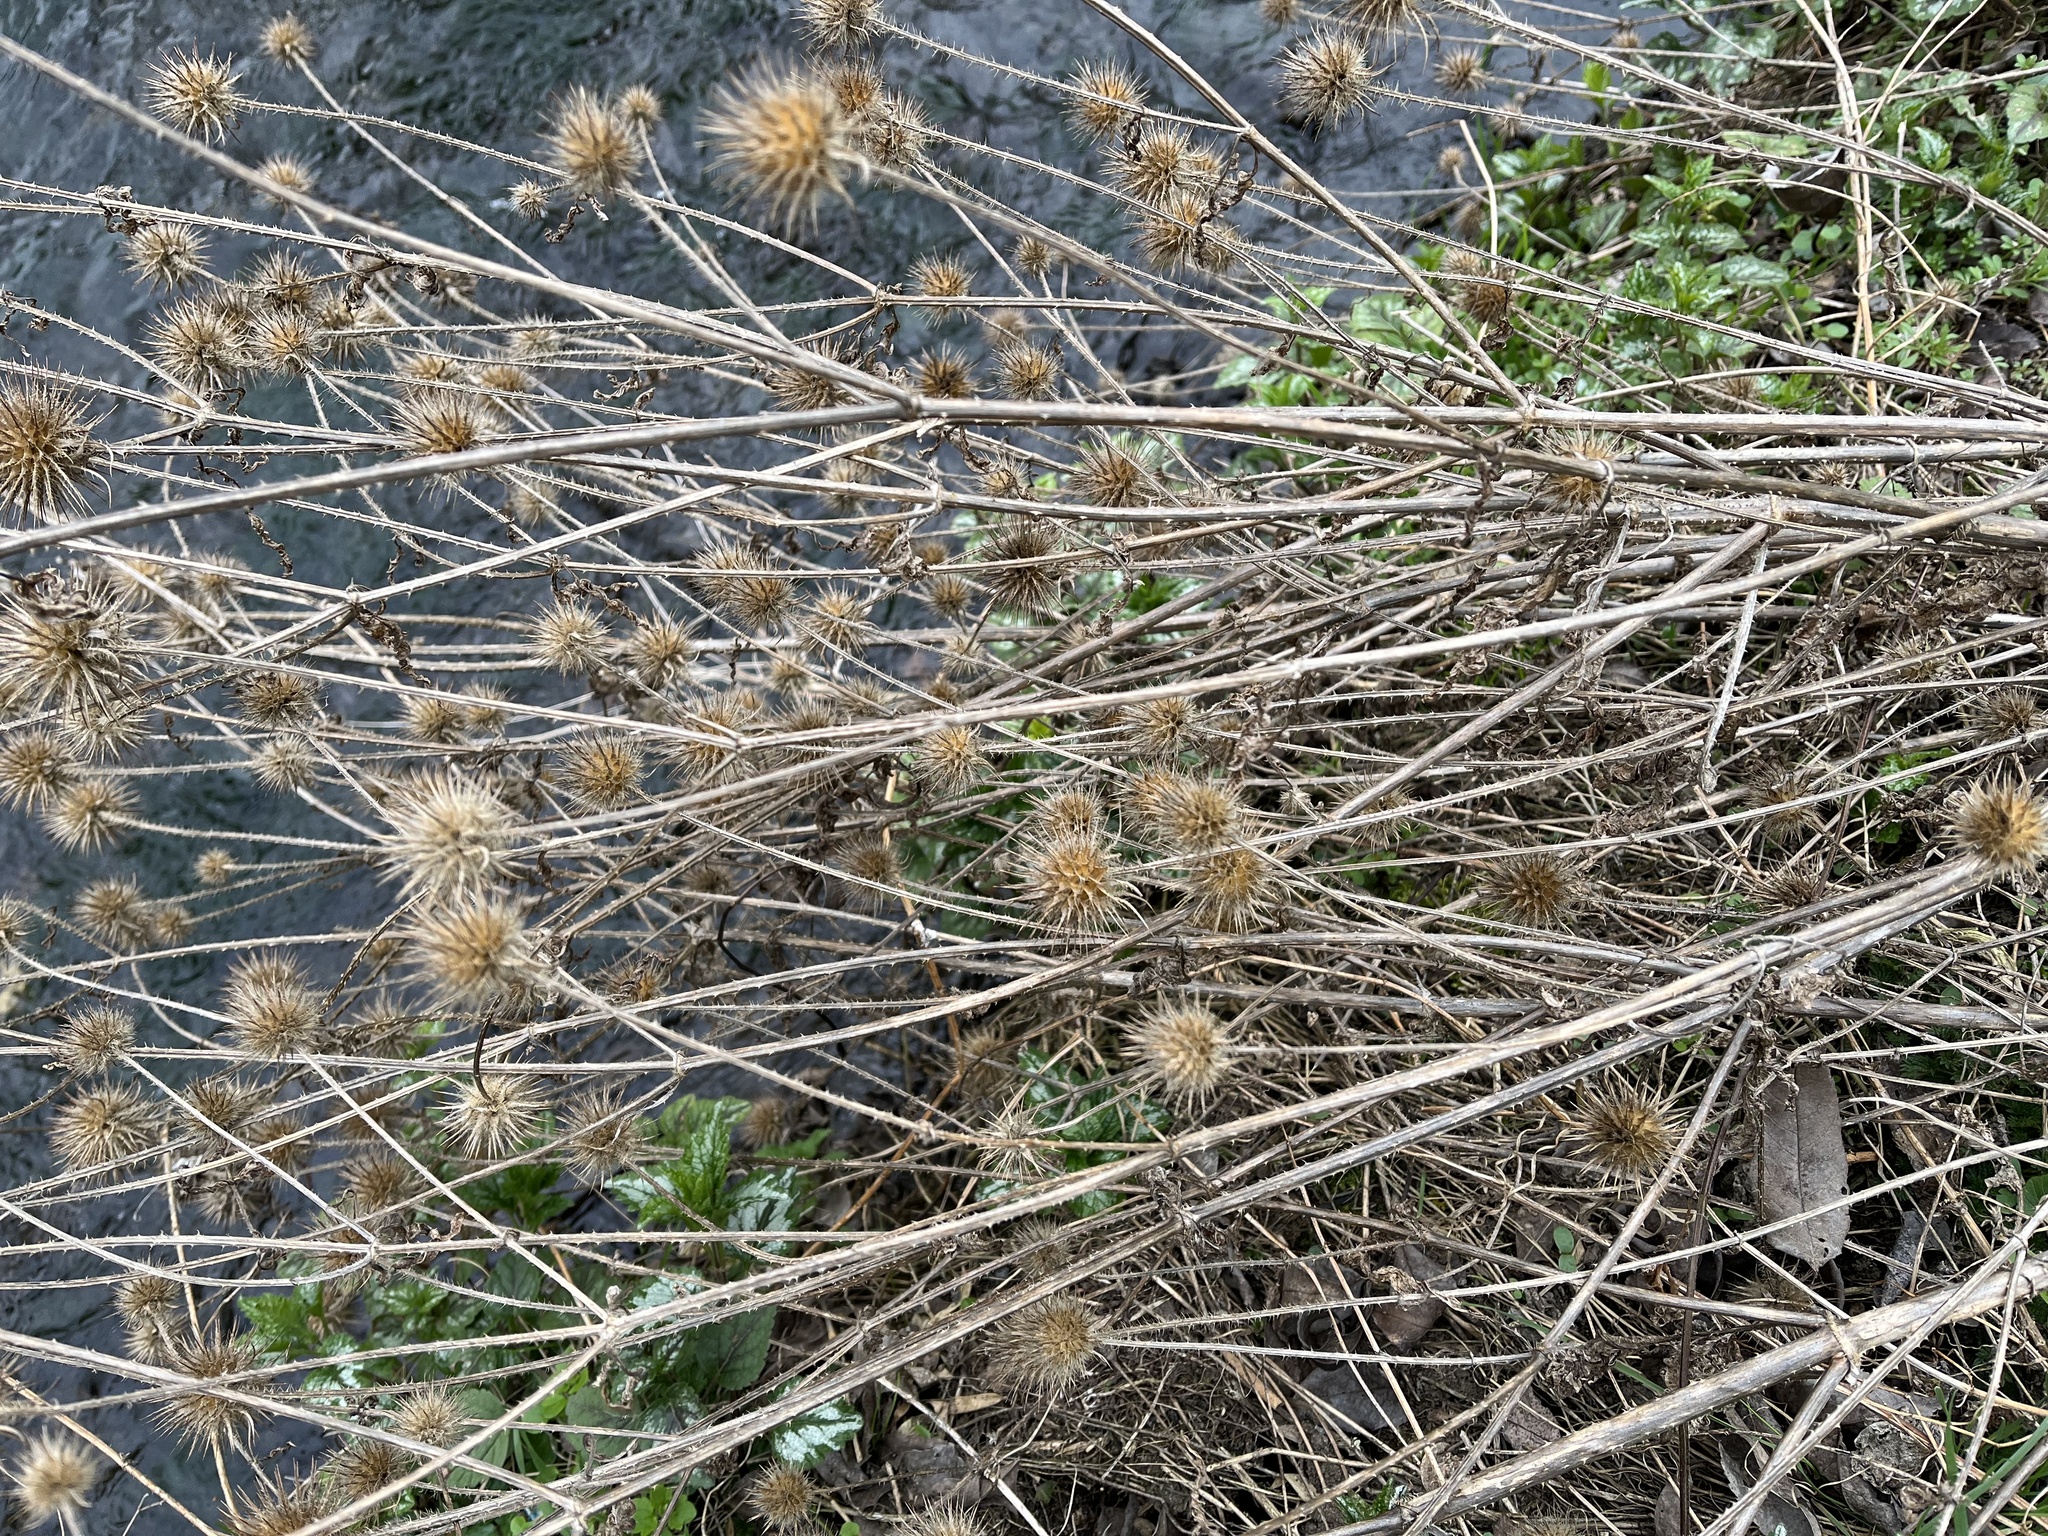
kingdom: Plantae
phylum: Tracheophyta
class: Magnoliopsida
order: Dipsacales
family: Caprifoliaceae
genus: Dipsacus
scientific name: Dipsacus strigosus
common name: Yellow-flowered teasel
